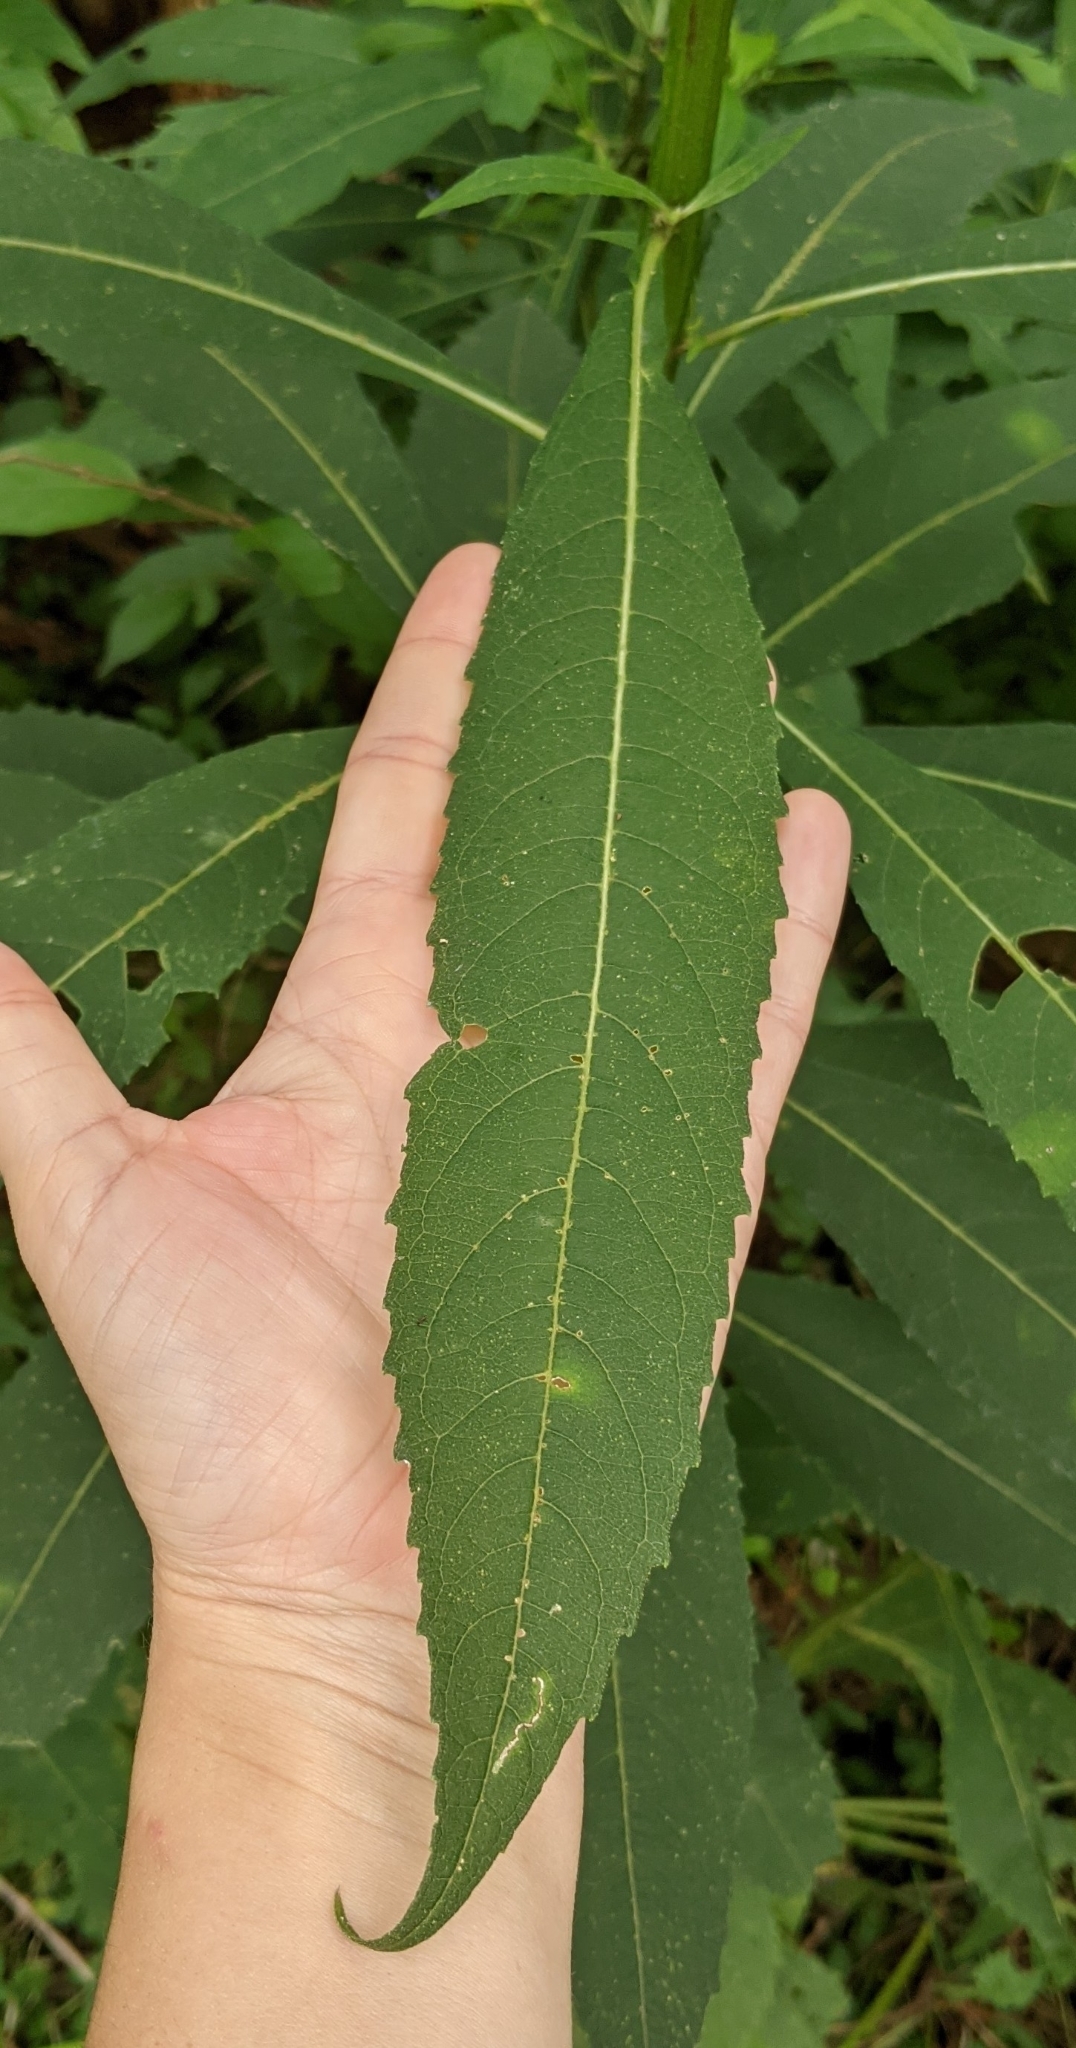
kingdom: Plantae
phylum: Tracheophyta
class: Magnoliopsida
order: Asterales
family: Asteraceae
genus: Verbesina
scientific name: Verbesina alternifolia
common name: Wingstem
